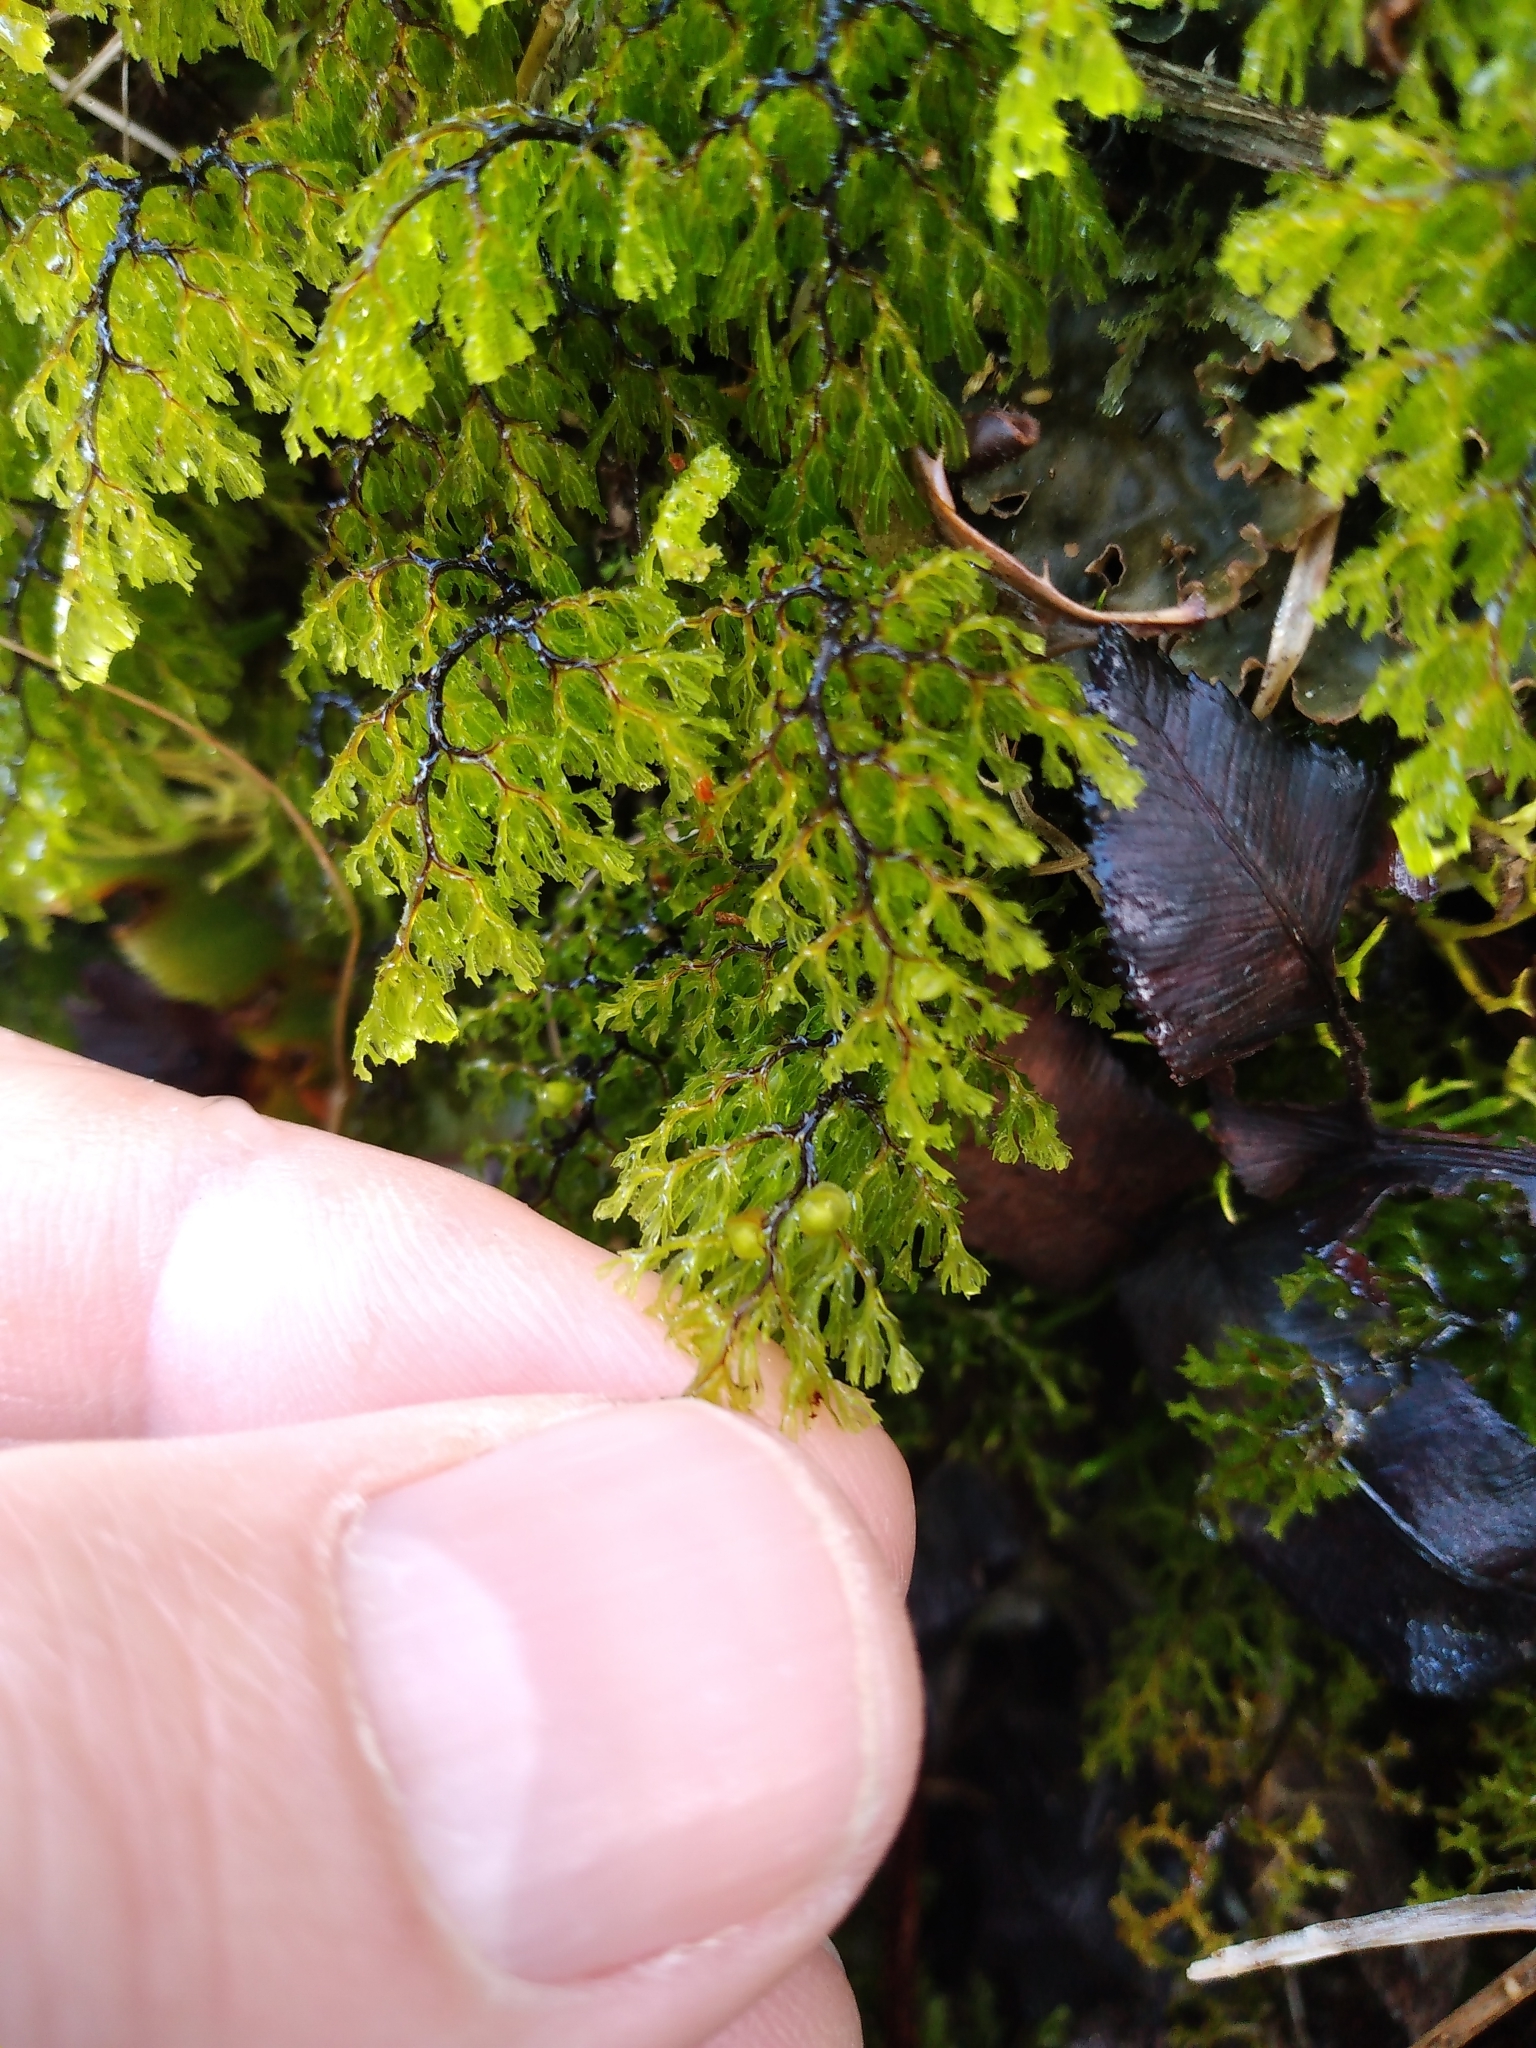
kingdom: Plantae
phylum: Tracheophyta
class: Polypodiopsida
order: Hymenophyllales
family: Hymenophyllaceae
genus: Hymenophyllum
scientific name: Hymenophyllum multifidum
